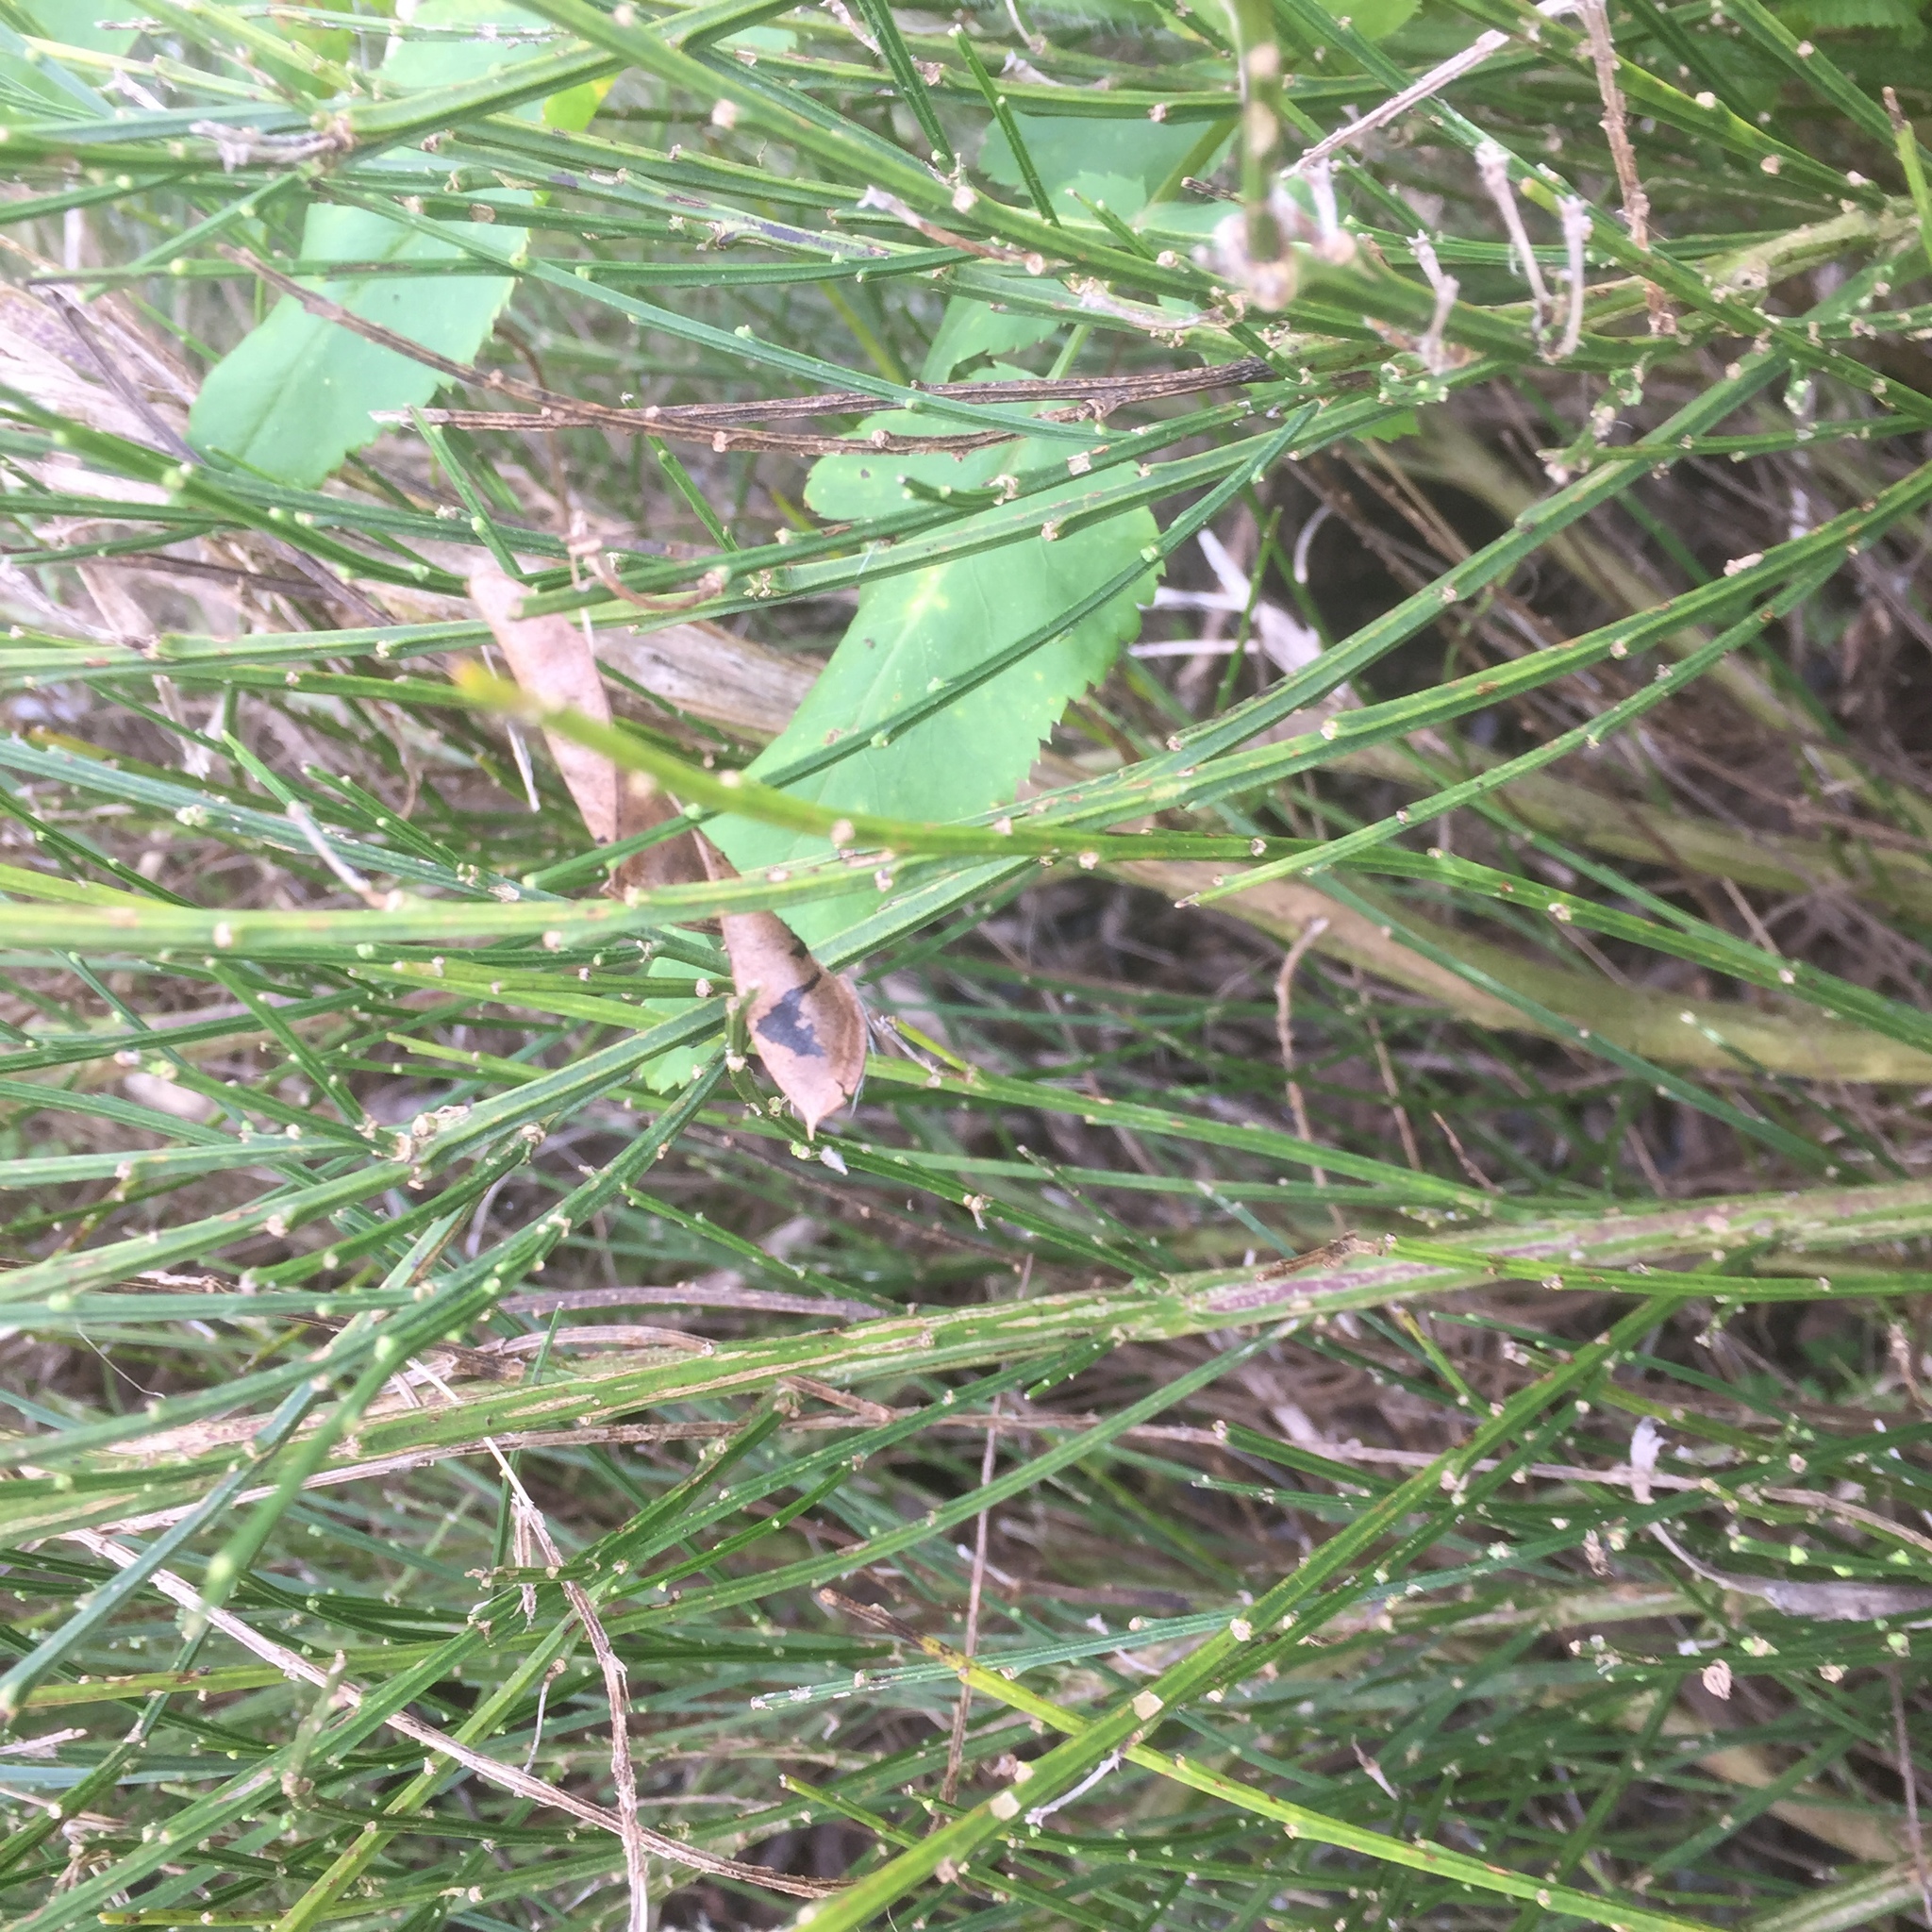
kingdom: Plantae
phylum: Tracheophyta
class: Magnoliopsida
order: Fabales
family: Fabaceae
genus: Cytisus
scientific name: Cytisus scoparius
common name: Scotch broom
